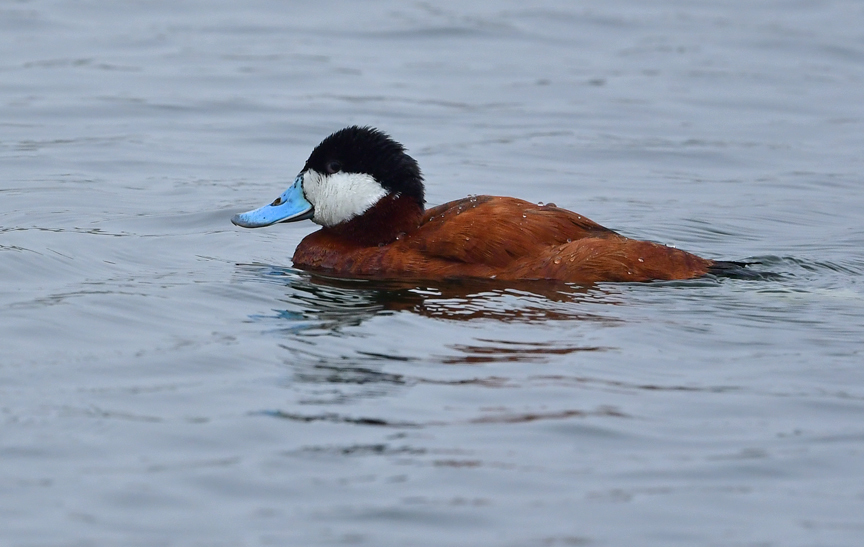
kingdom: Animalia
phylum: Chordata
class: Aves
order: Anseriformes
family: Anatidae
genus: Oxyura
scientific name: Oxyura jamaicensis
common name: Ruddy duck
